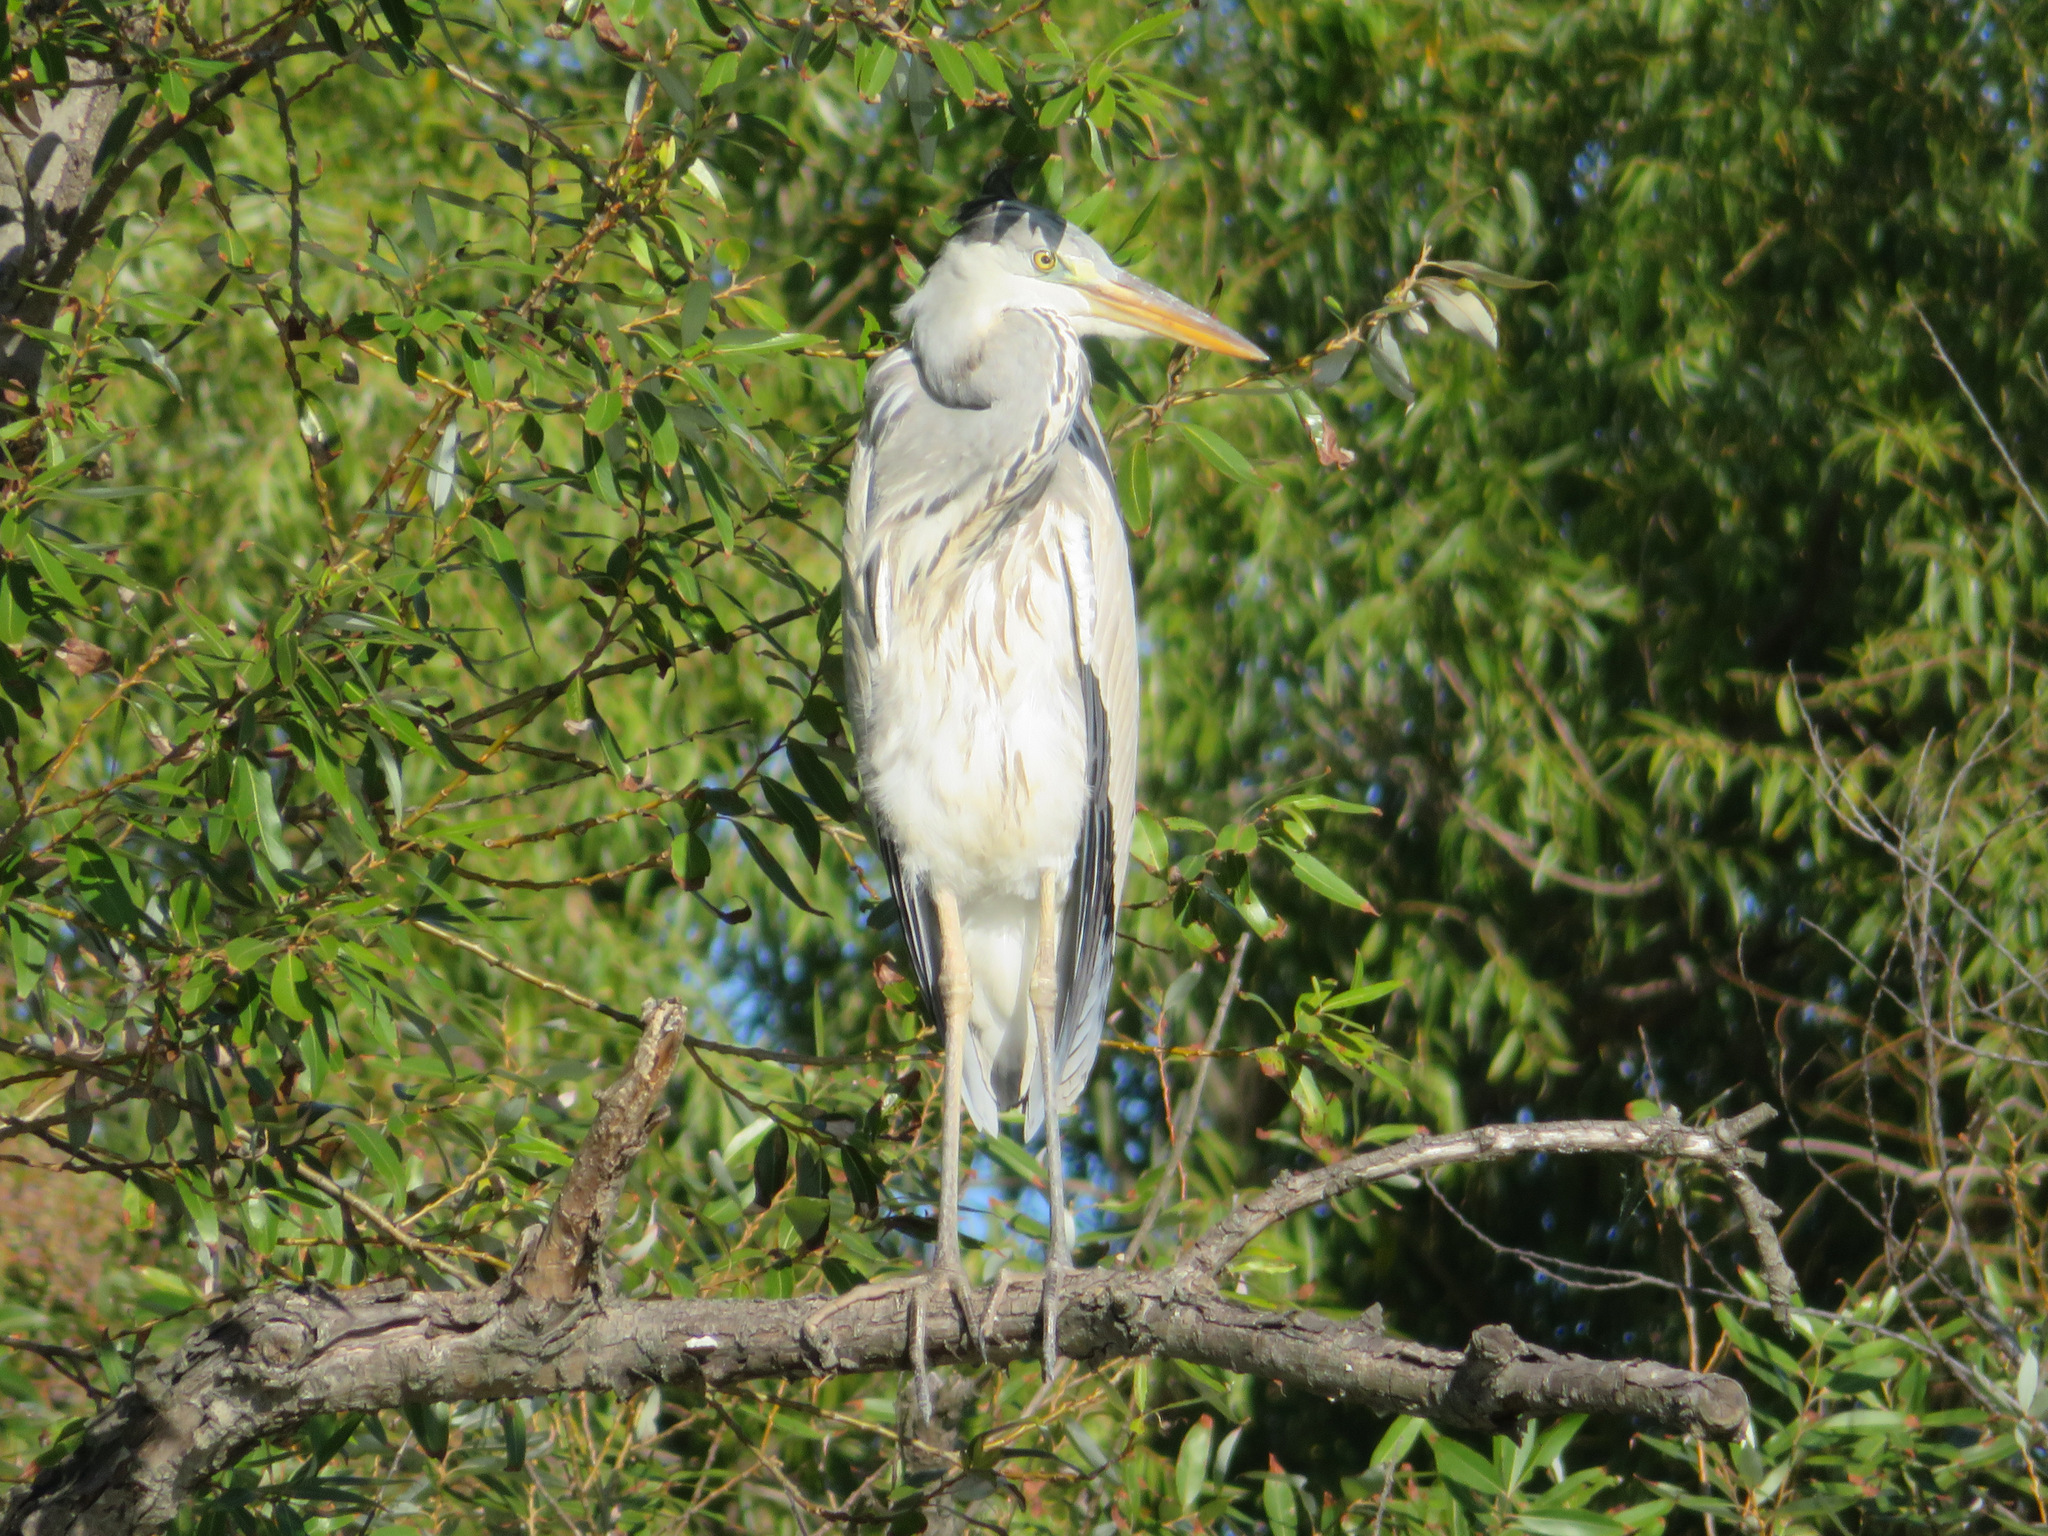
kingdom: Animalia
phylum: Chordata
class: Aves
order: Pelecaniformes
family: Ardeidae
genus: Ardea
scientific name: Ardea cinerea
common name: Grey heron
